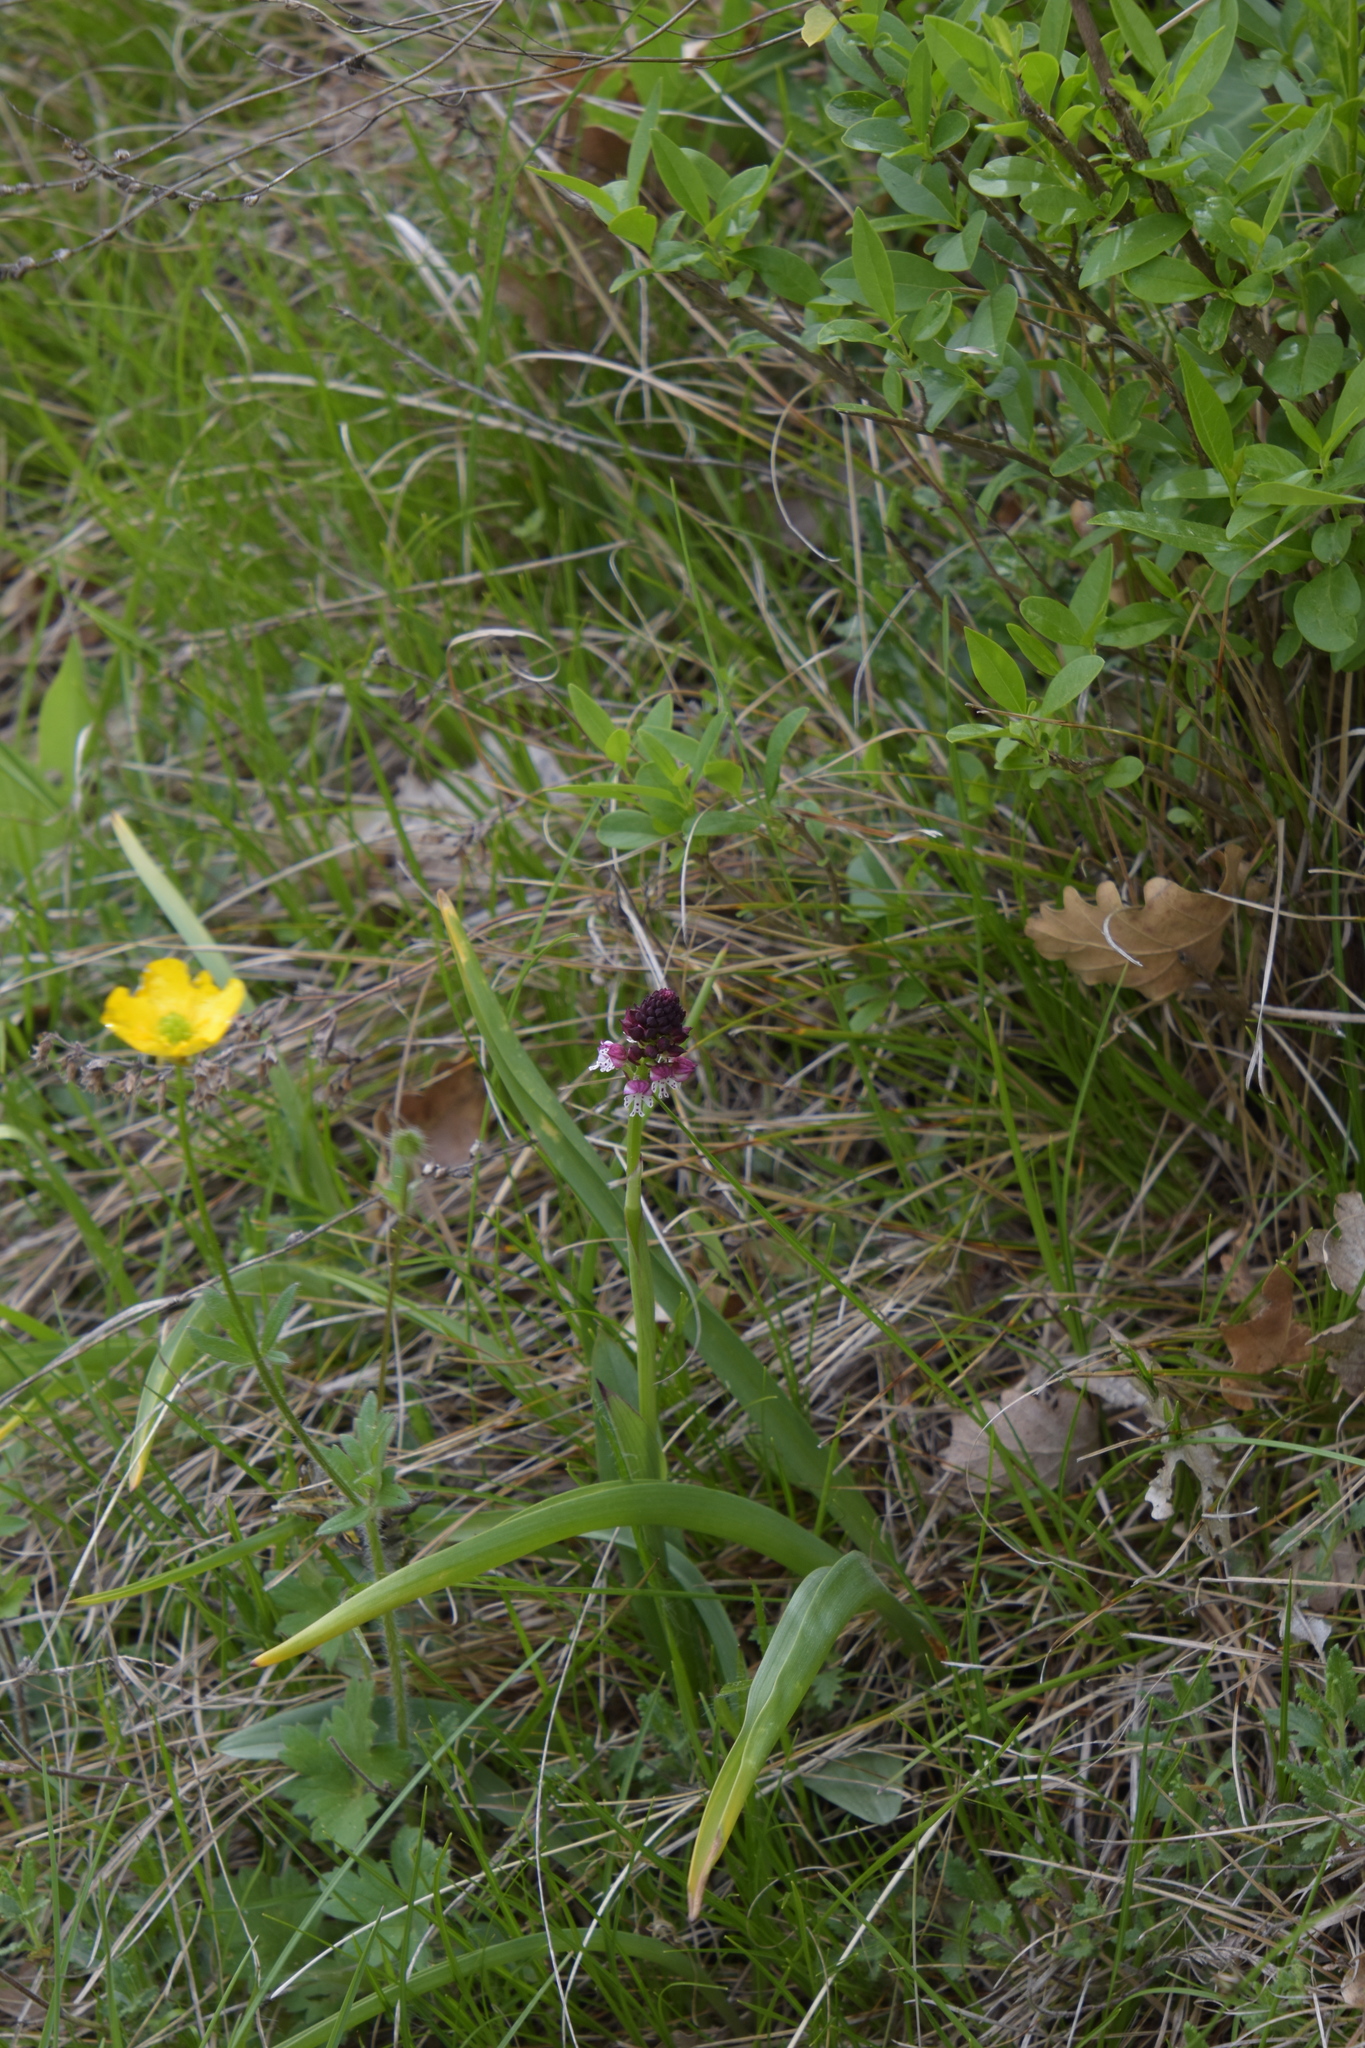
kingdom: Plantae
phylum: Tracheophyta
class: Liliopsida
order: Asparagales
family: Orchidaceae
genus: Neotinea
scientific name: Neotinea ustulata
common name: Burnt orchid
